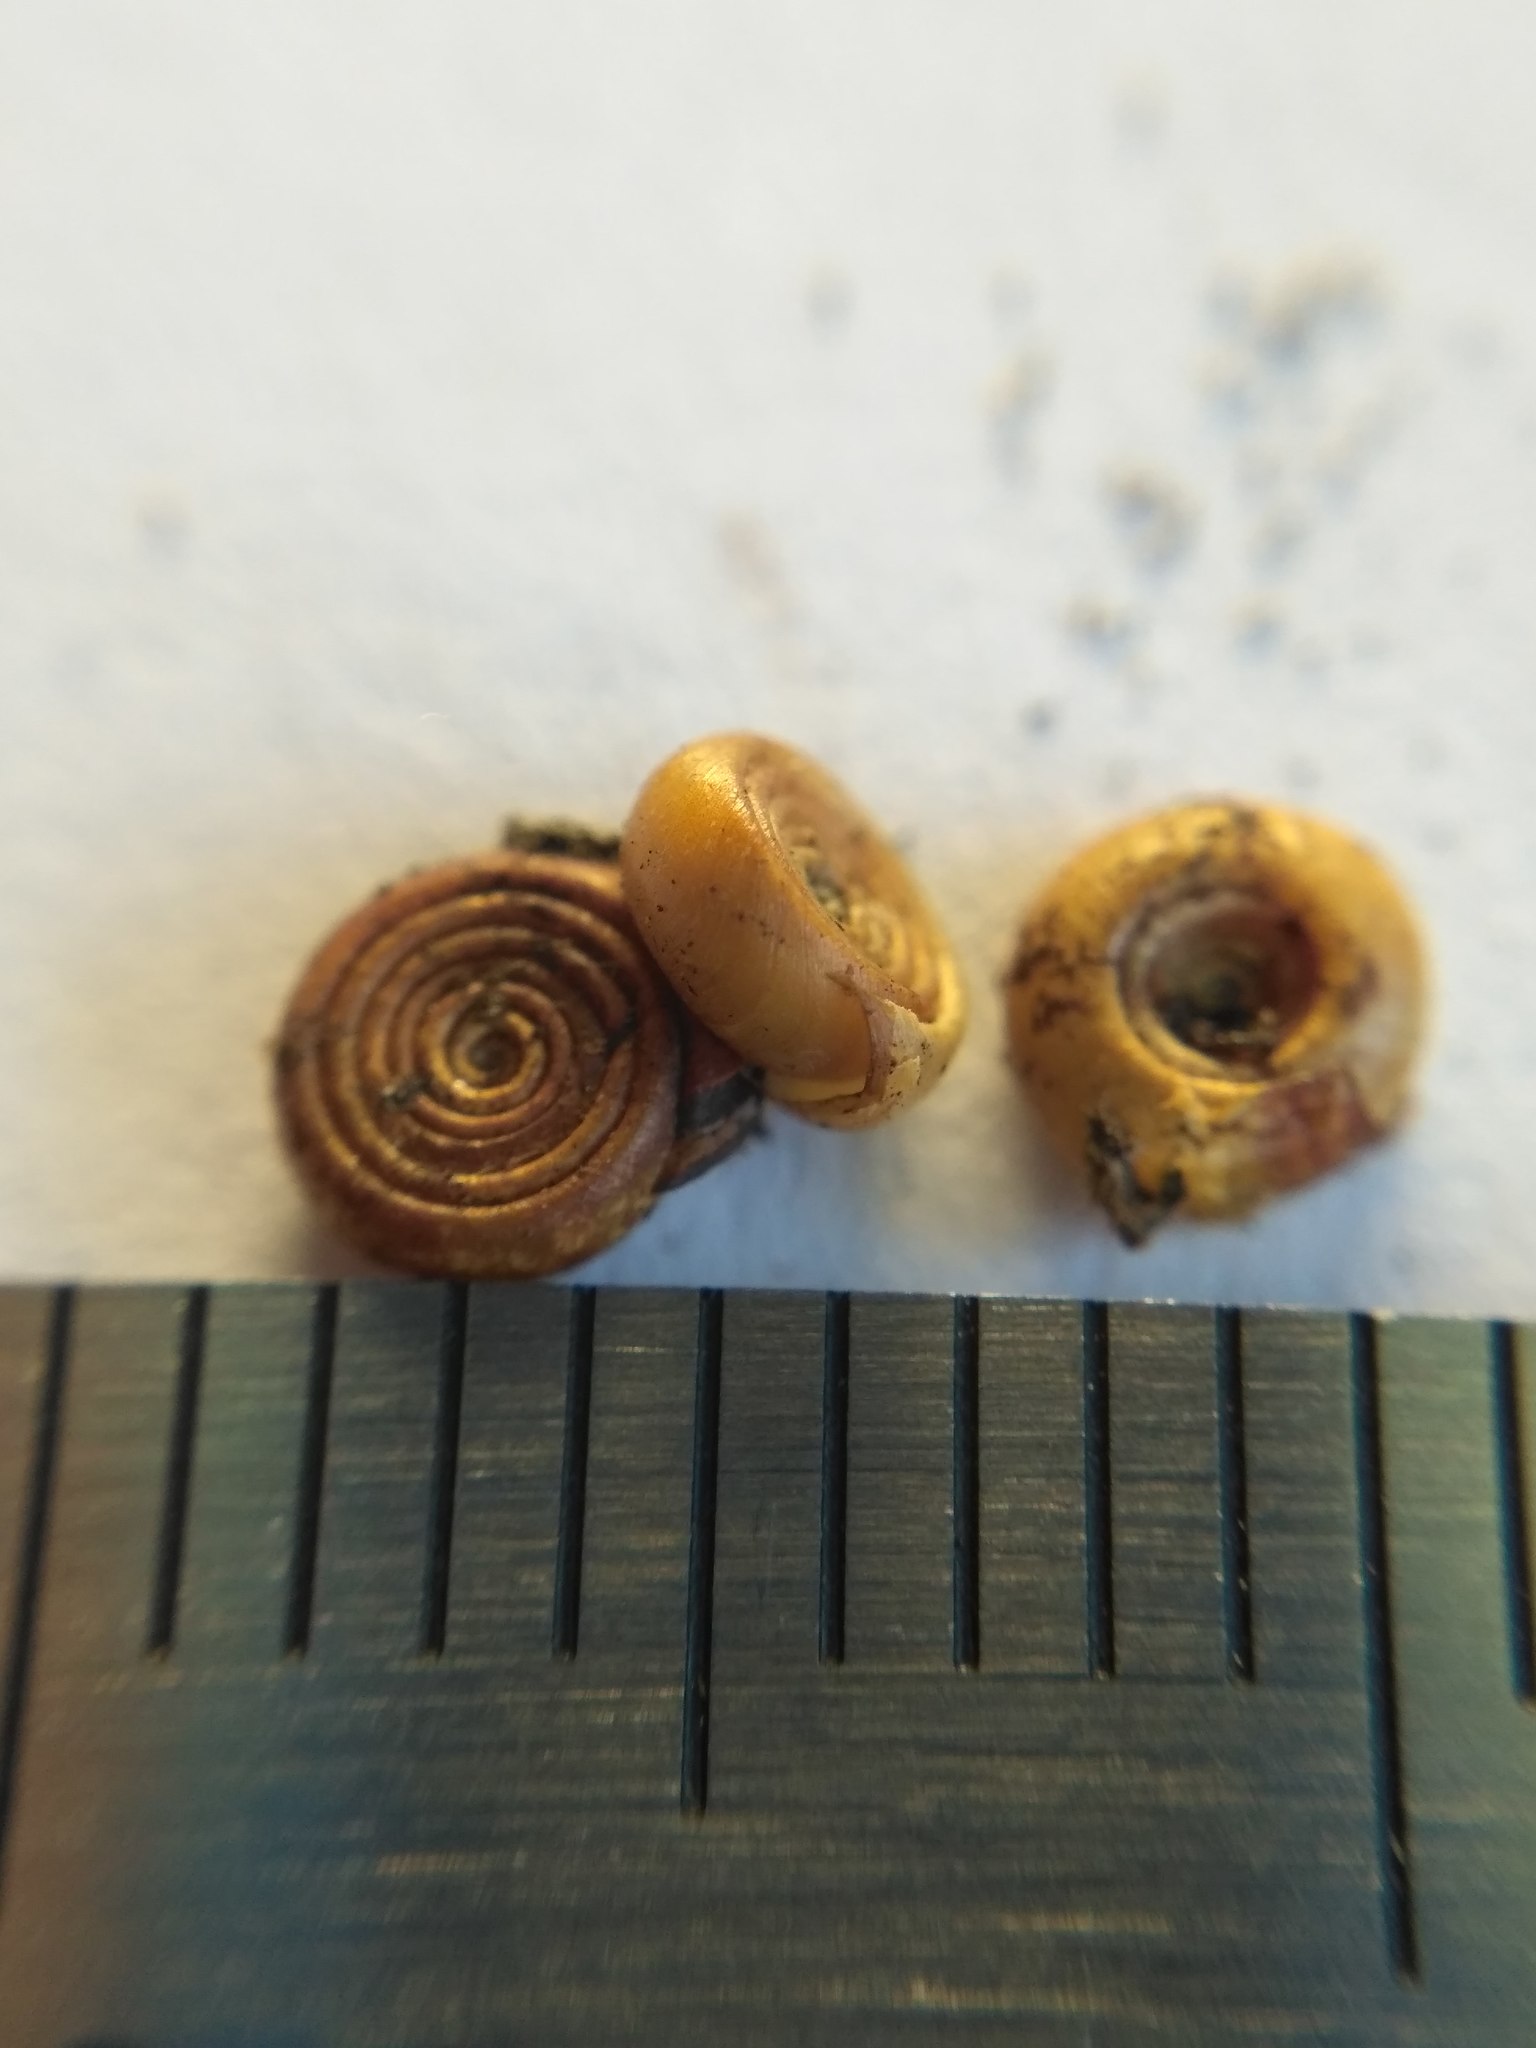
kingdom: Animalia
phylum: Mollusca
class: Gastropoda
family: Planorbidae
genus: Bathyomphalus
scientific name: Bathyomphalus contortus
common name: Twisted ramshorn
